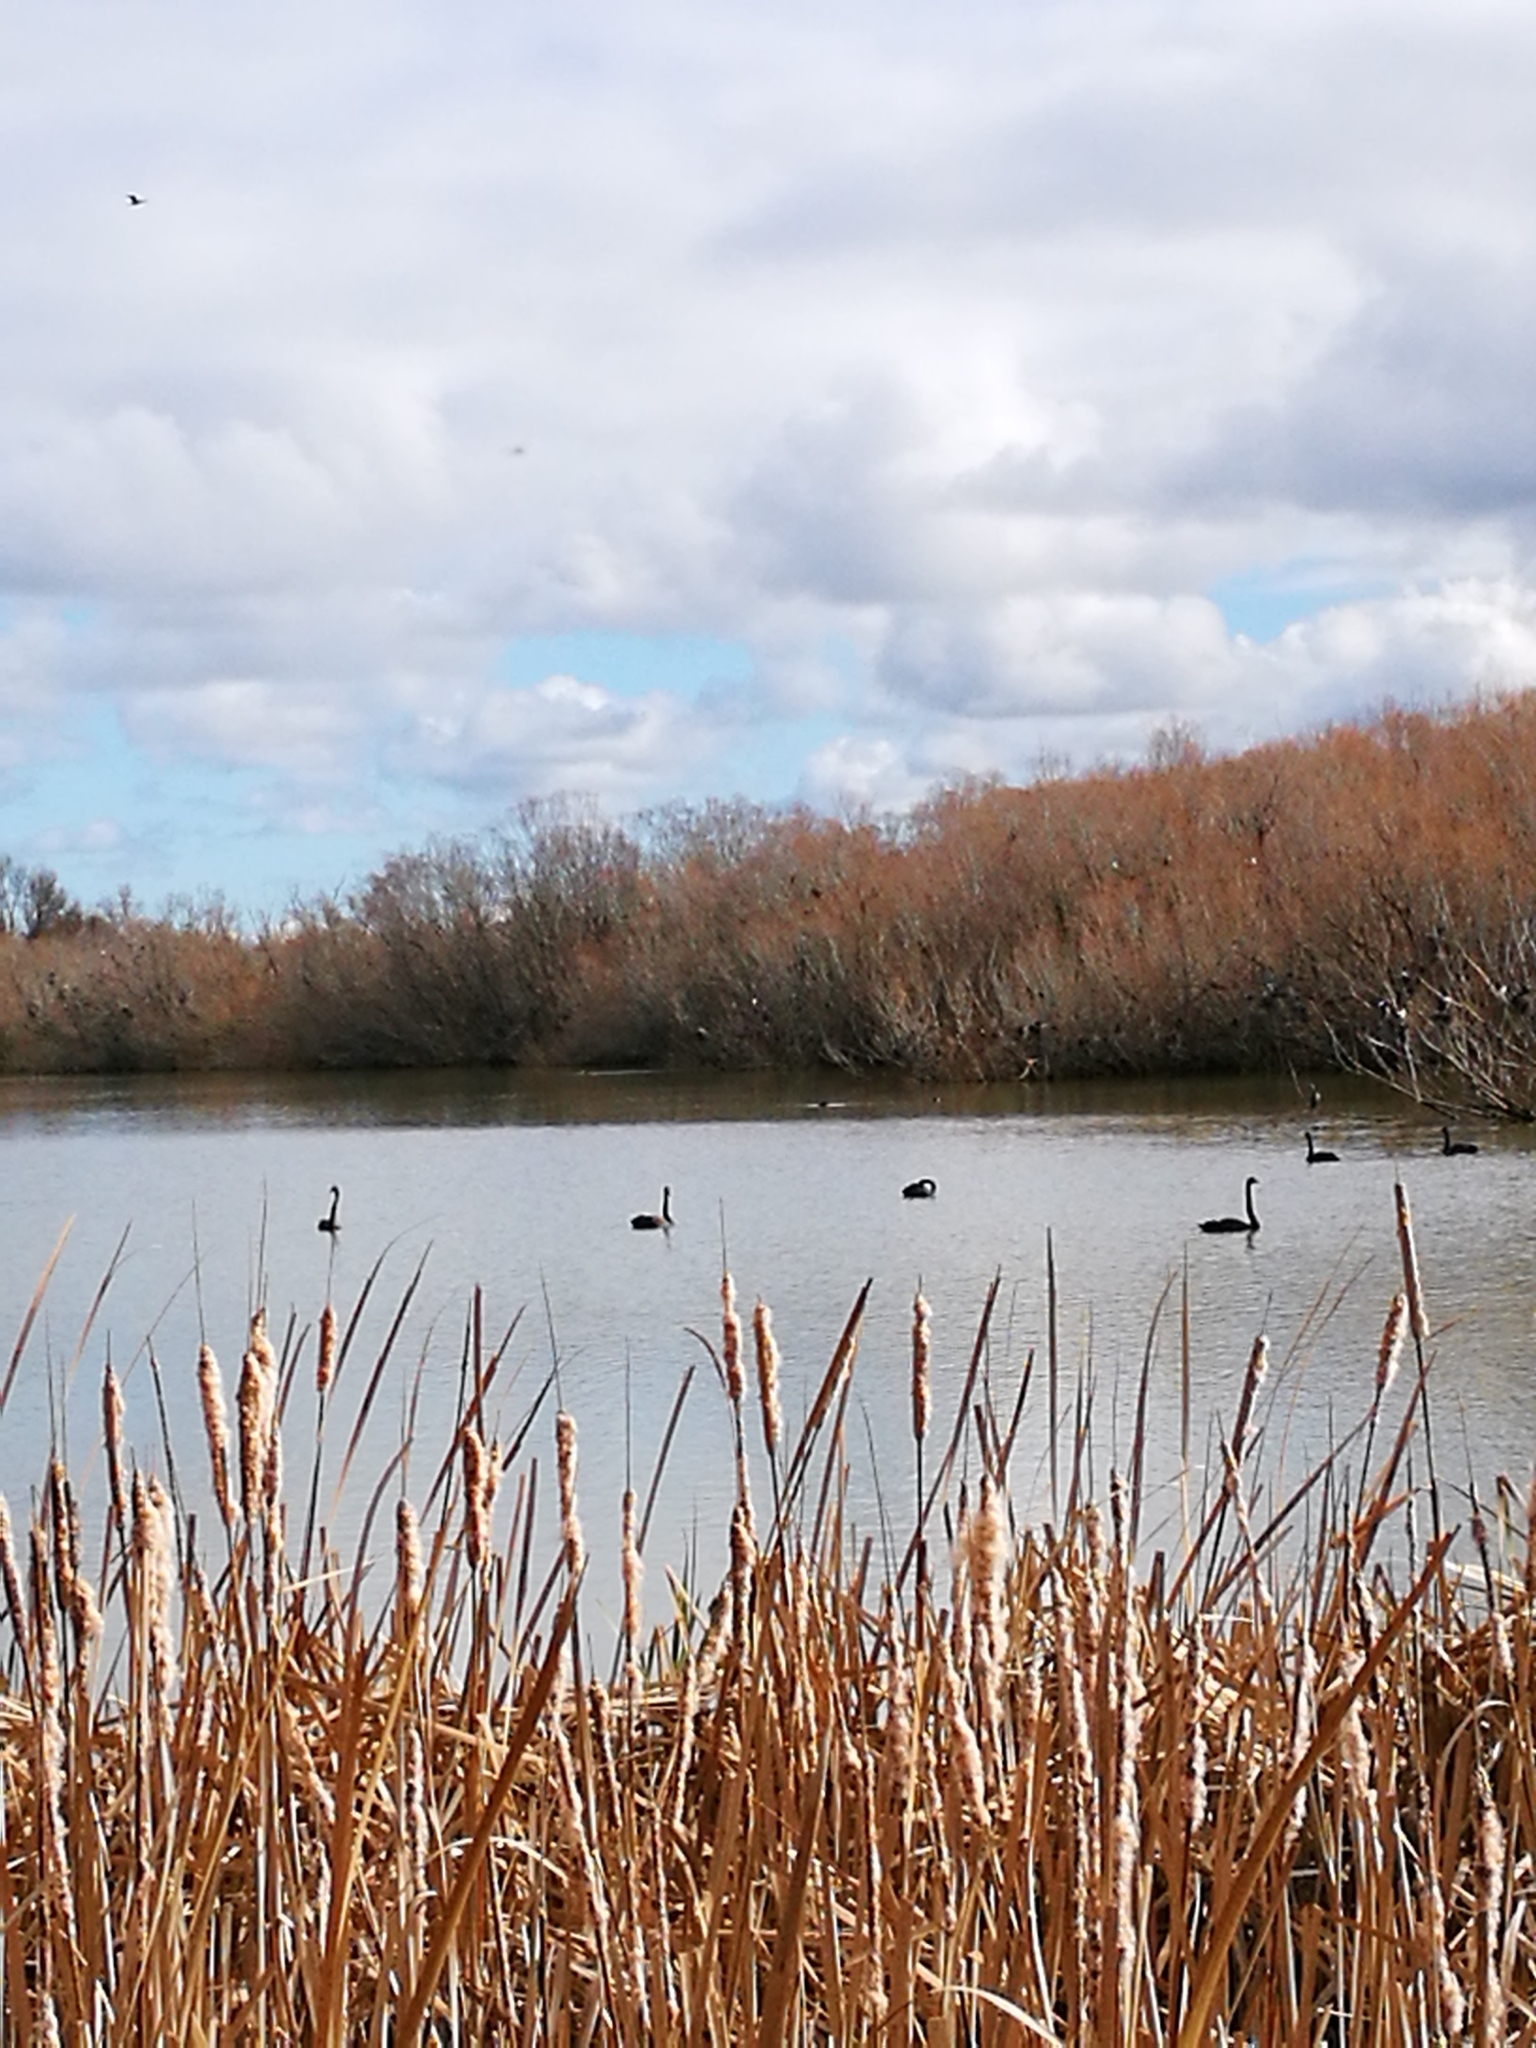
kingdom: Animalia
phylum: Chordata
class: Aves
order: Anseriformes
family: Anatidae
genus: Cygnus
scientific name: Cygnus atratus
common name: Black swan
